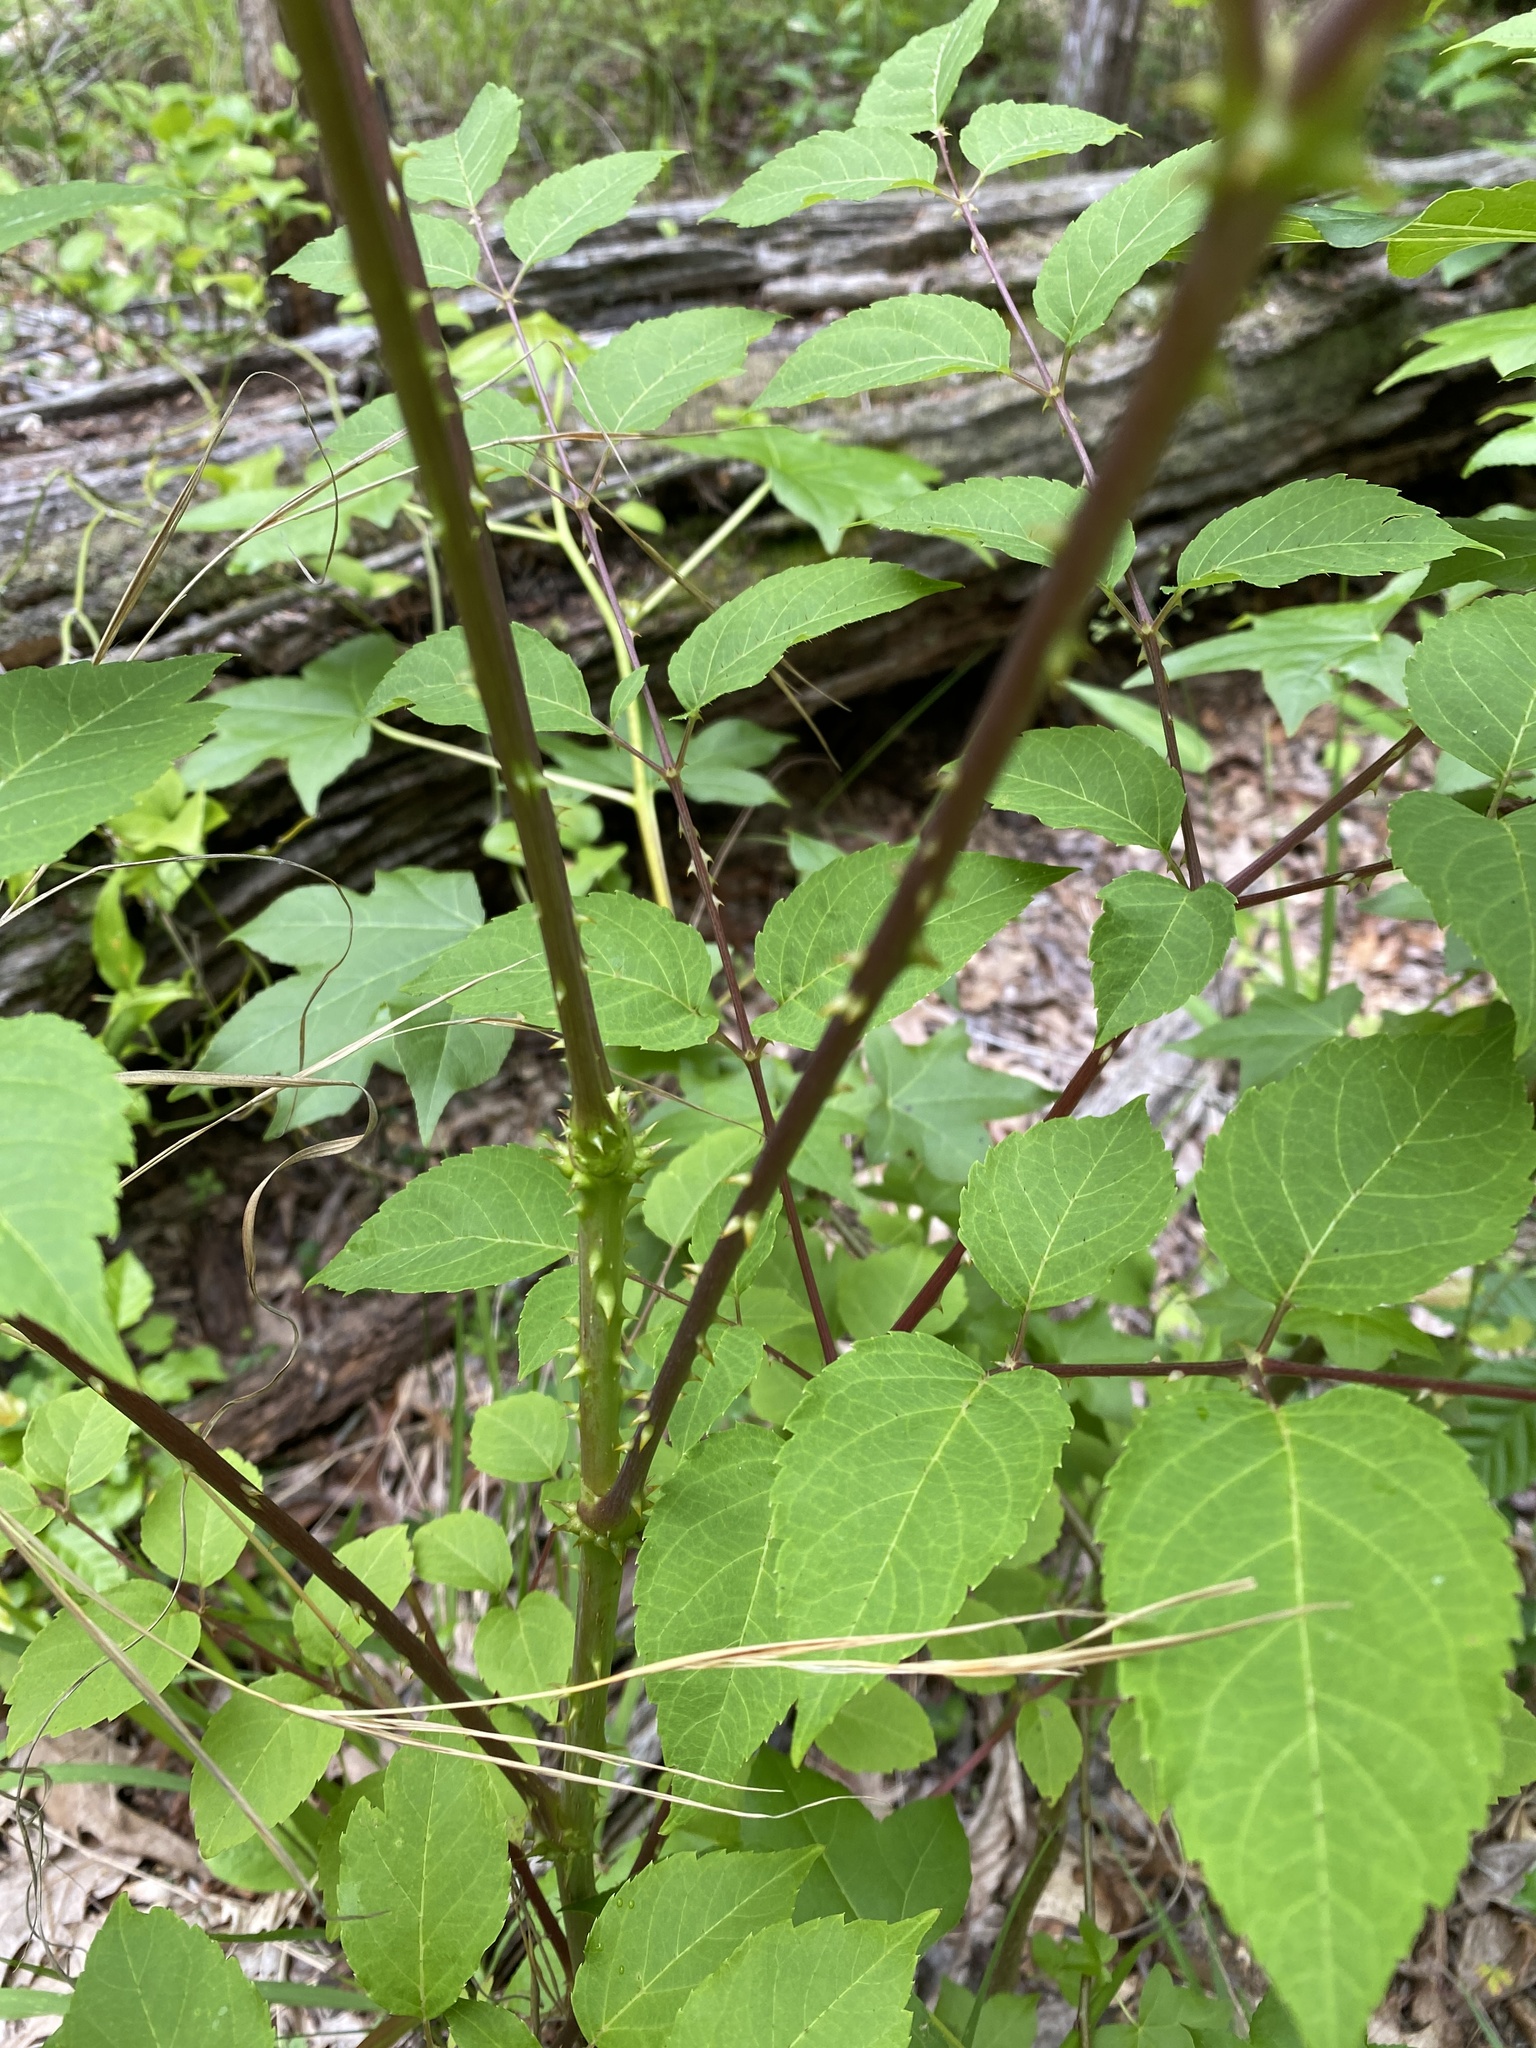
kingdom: Plantae
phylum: Tracheophyta
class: Magnoliopsida
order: Apiales
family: Araliaceae
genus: Aralia
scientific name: Aralia spinosa
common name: Hercules'-club
